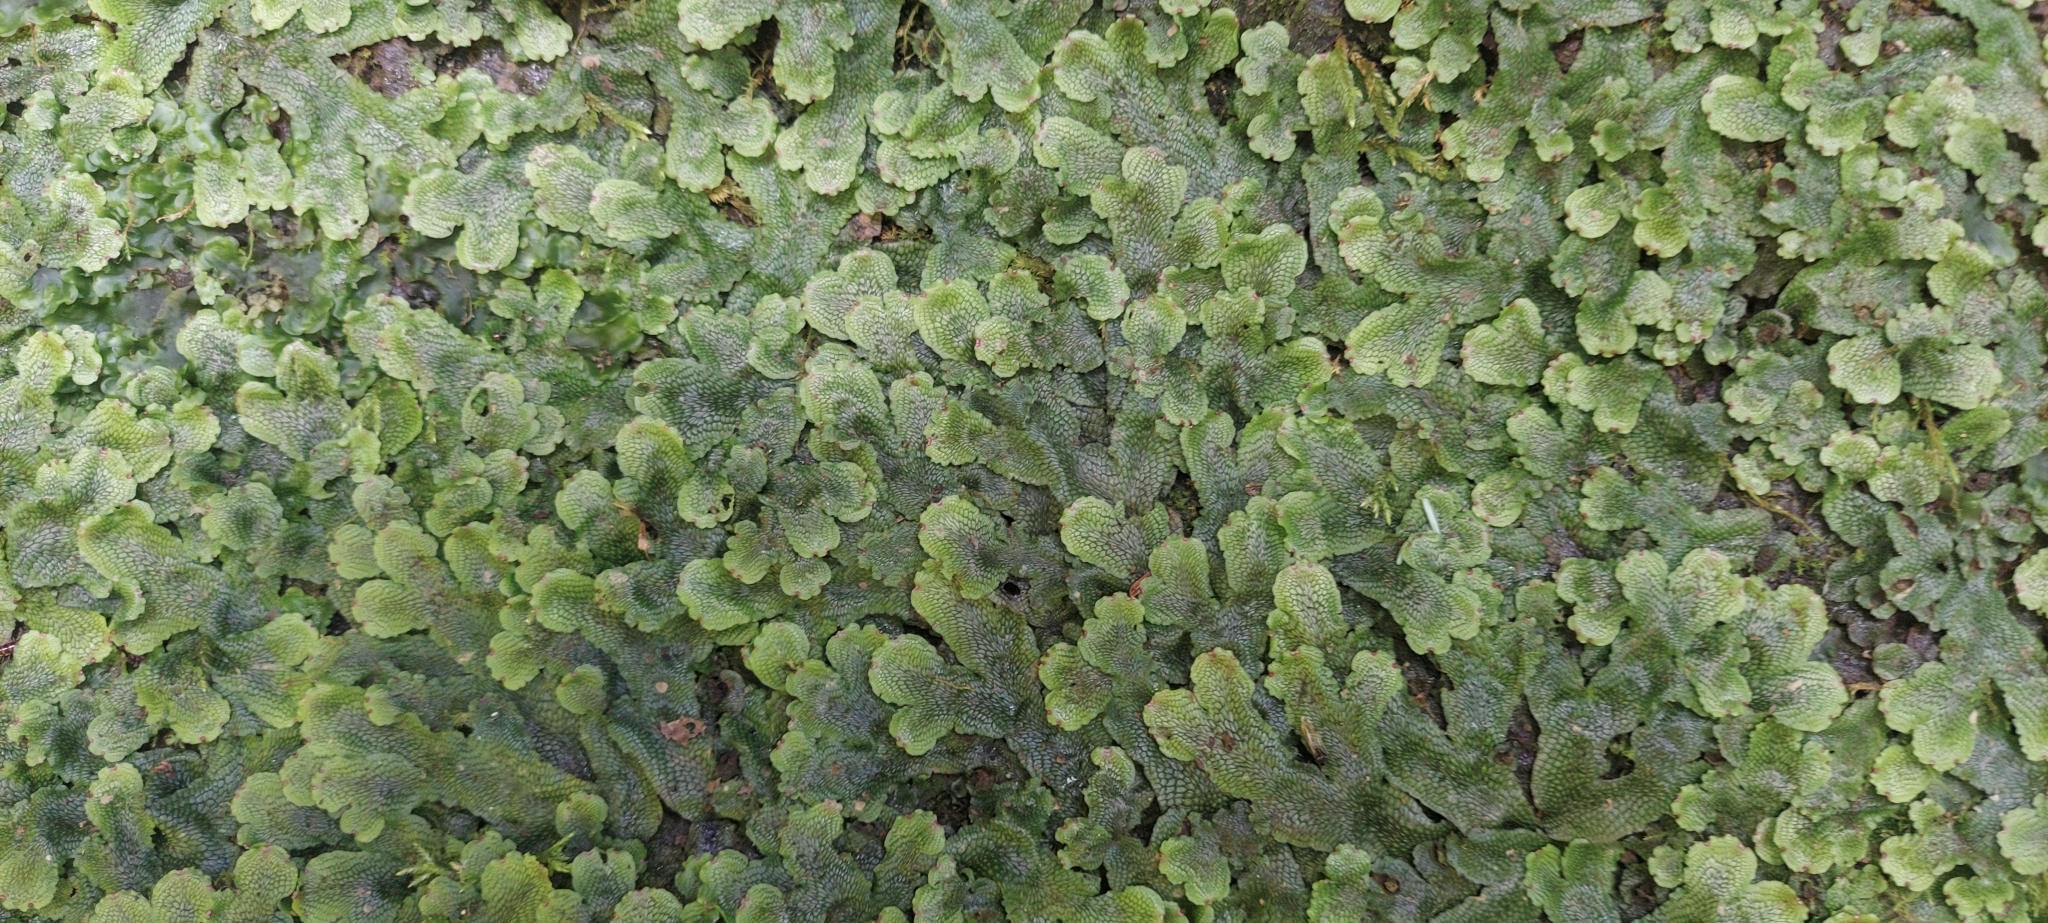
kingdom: Plantae
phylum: Marchantiophyta
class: Marchantiopsida
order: Marchantiales
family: Conocephalaceae
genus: Conocephalum
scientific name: Conocephalum salebrosum
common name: Cat-tongue liverwort
